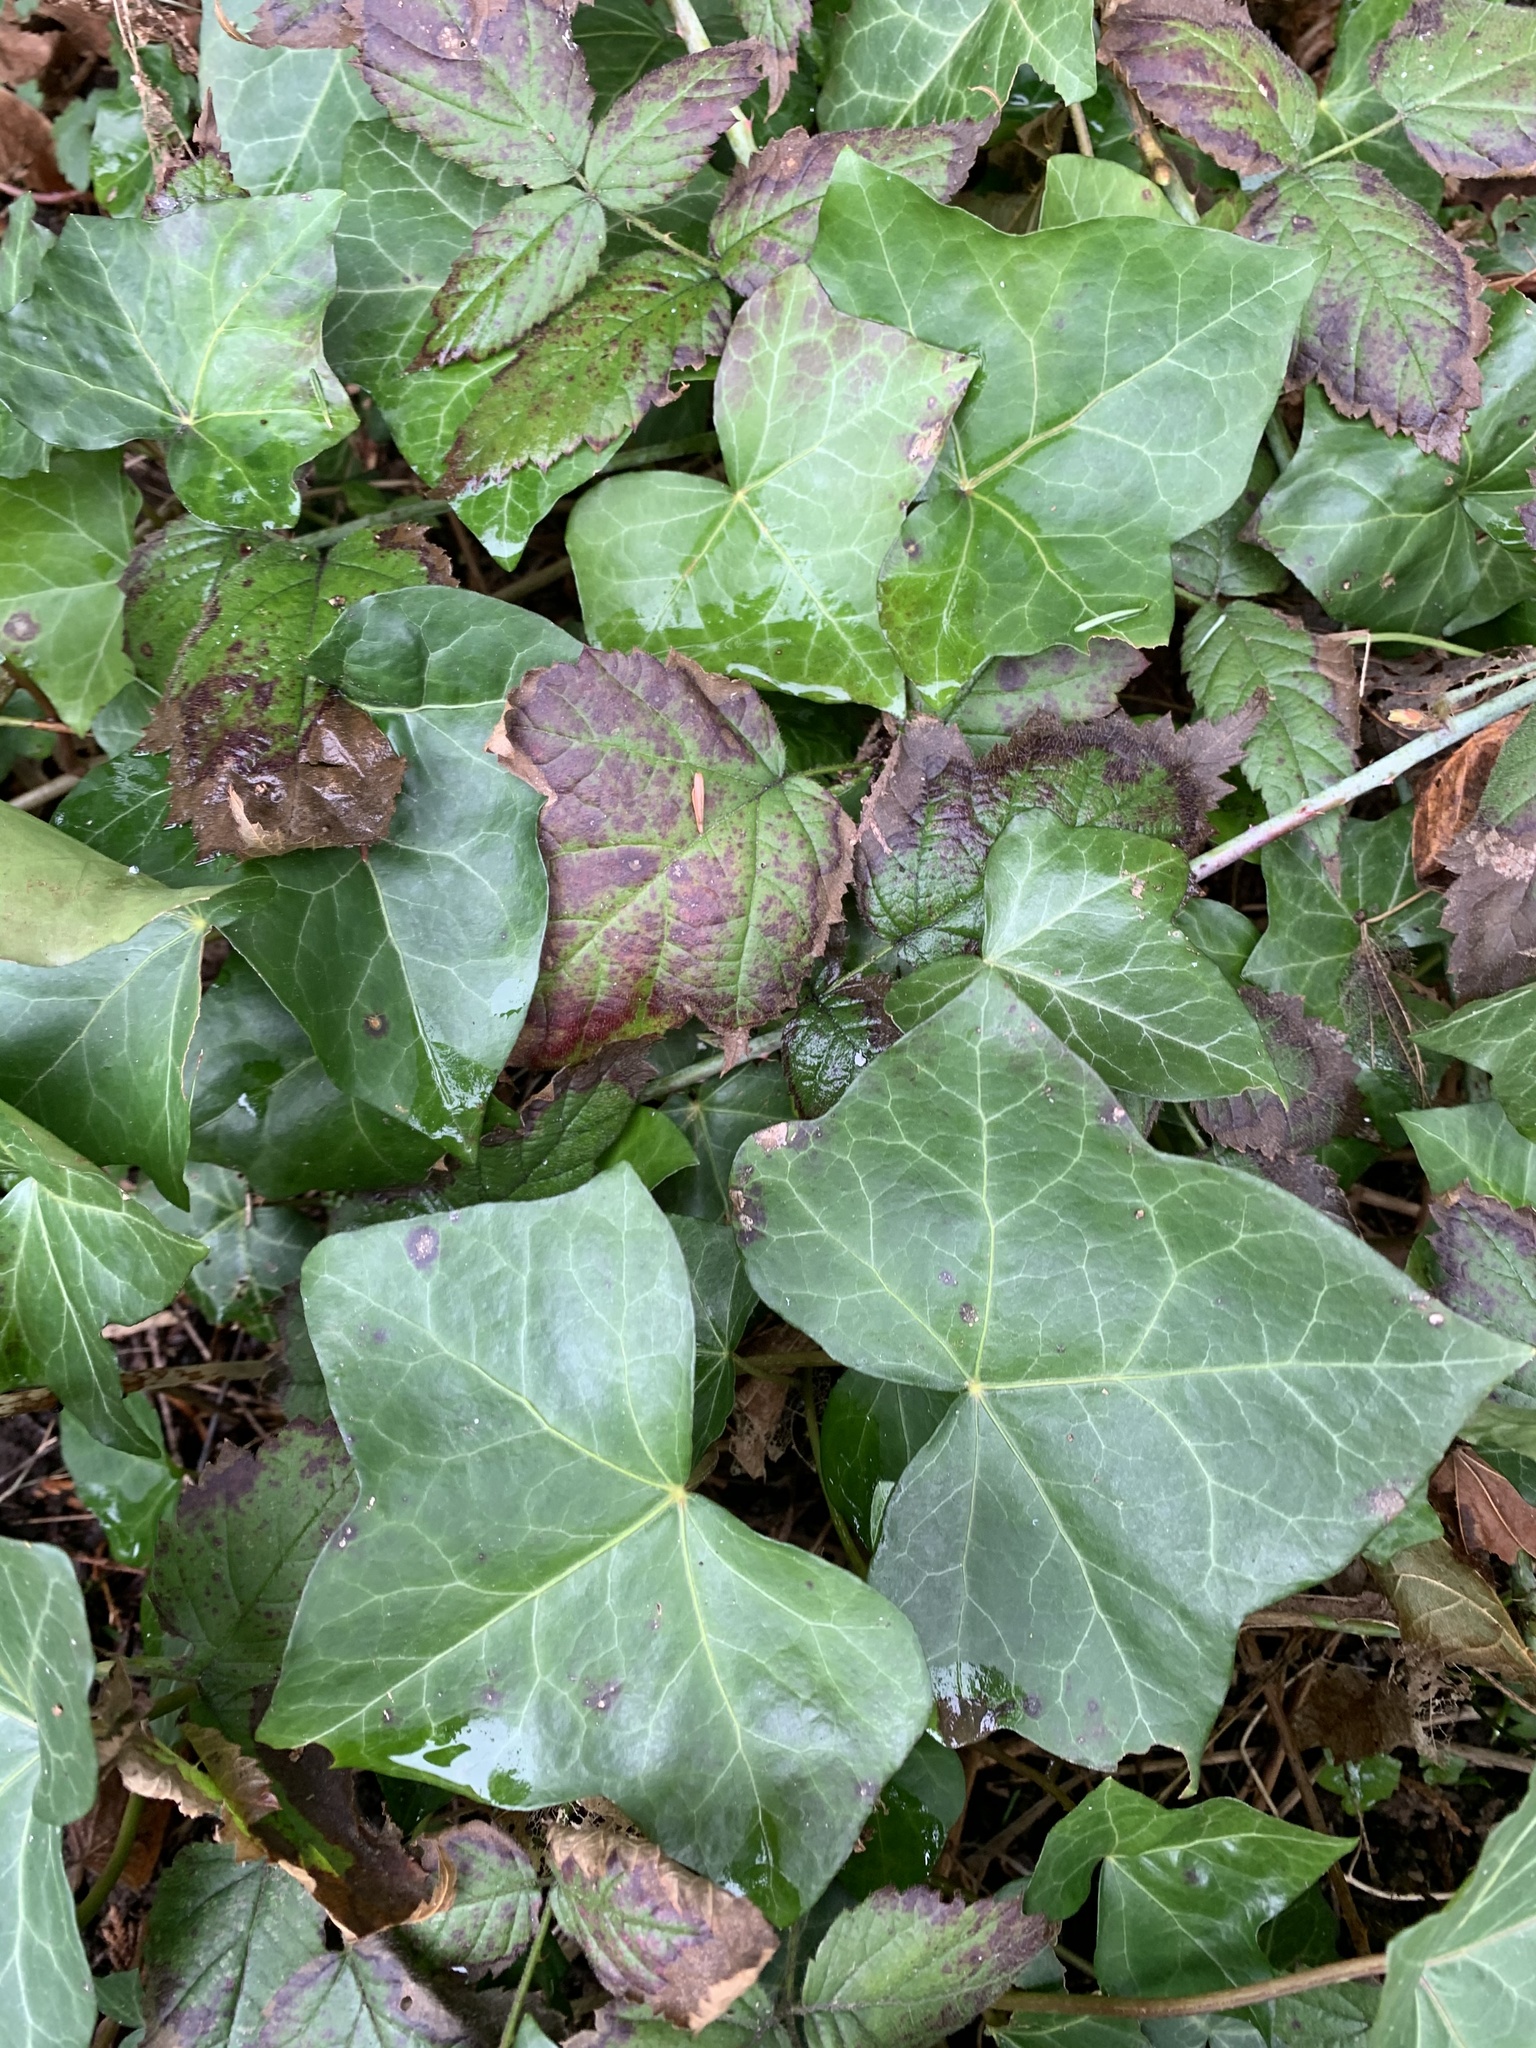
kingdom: Plantae
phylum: Tracheophyta
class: Magnoliopsida
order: Apiales
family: Araliaceae
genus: Hedera
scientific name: Hedera helix
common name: Ivy
